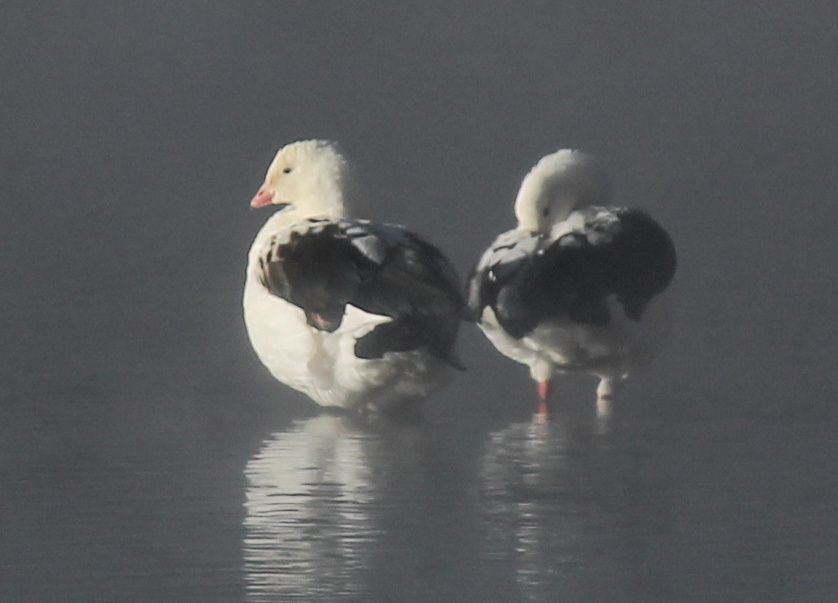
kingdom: Animalia
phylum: Chordata
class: Aves
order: Anseriformes
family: Anatidae
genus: Chloephaga
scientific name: Chloephaga melanoptera
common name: Andean goose
